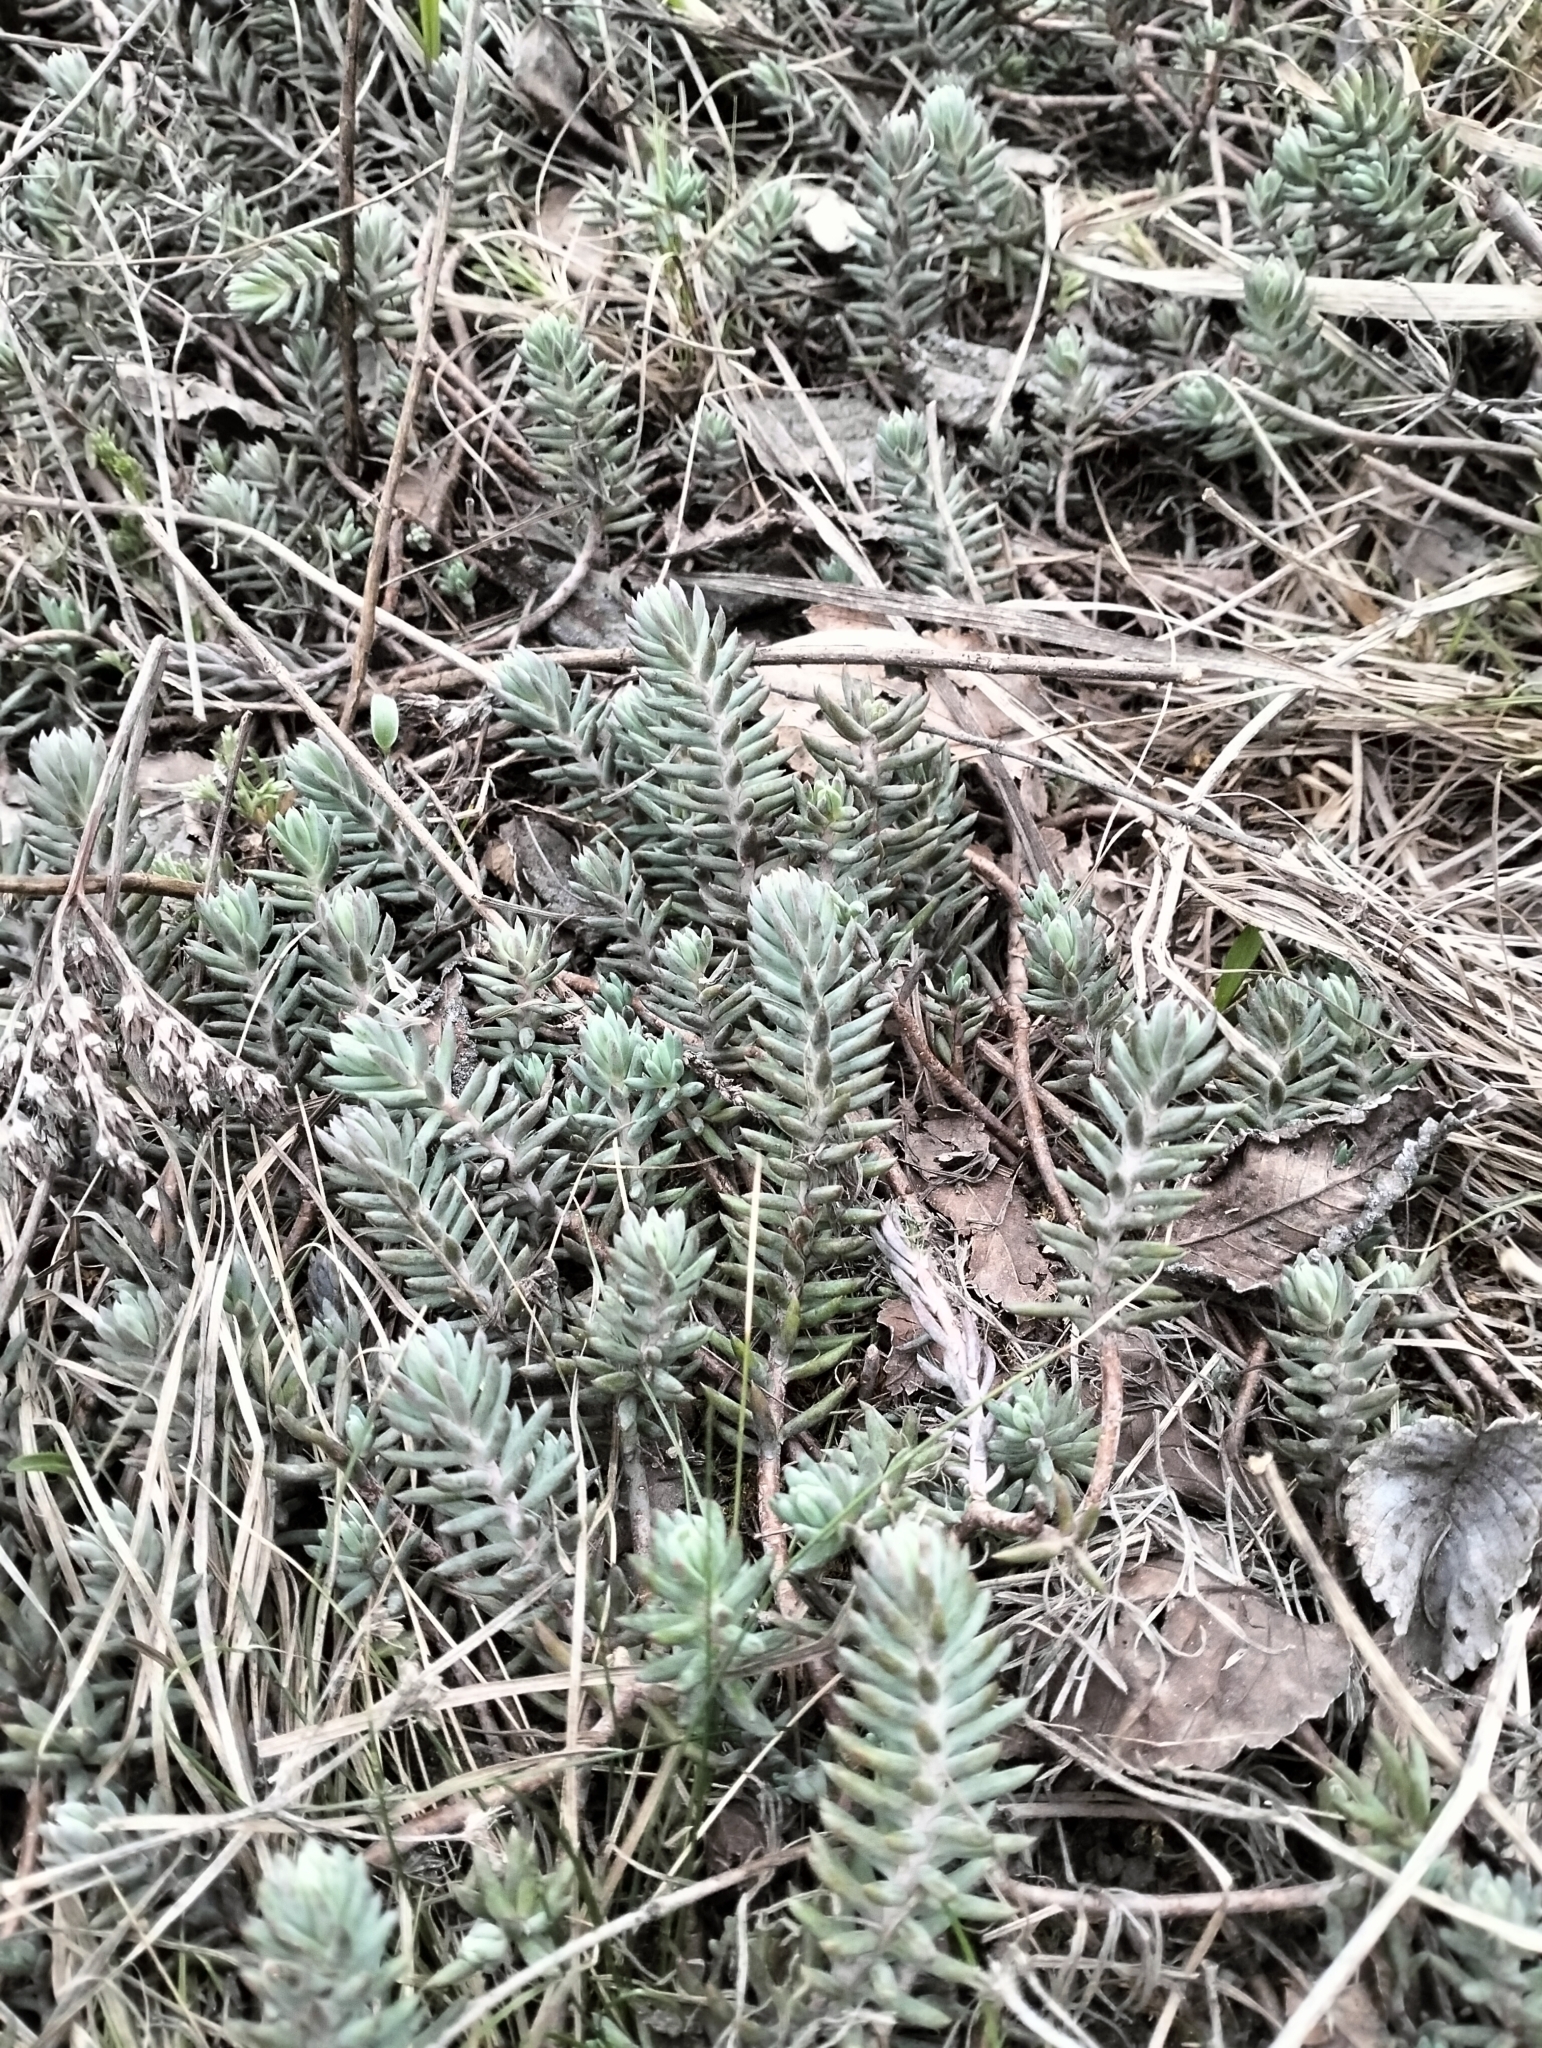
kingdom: Plantae
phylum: Tracheophyta
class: Magnoliopsida
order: Saxifragales
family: Crassulaceae
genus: Petrosedum
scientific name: Petrosedum rupestre
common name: Jenny's stonecrop
